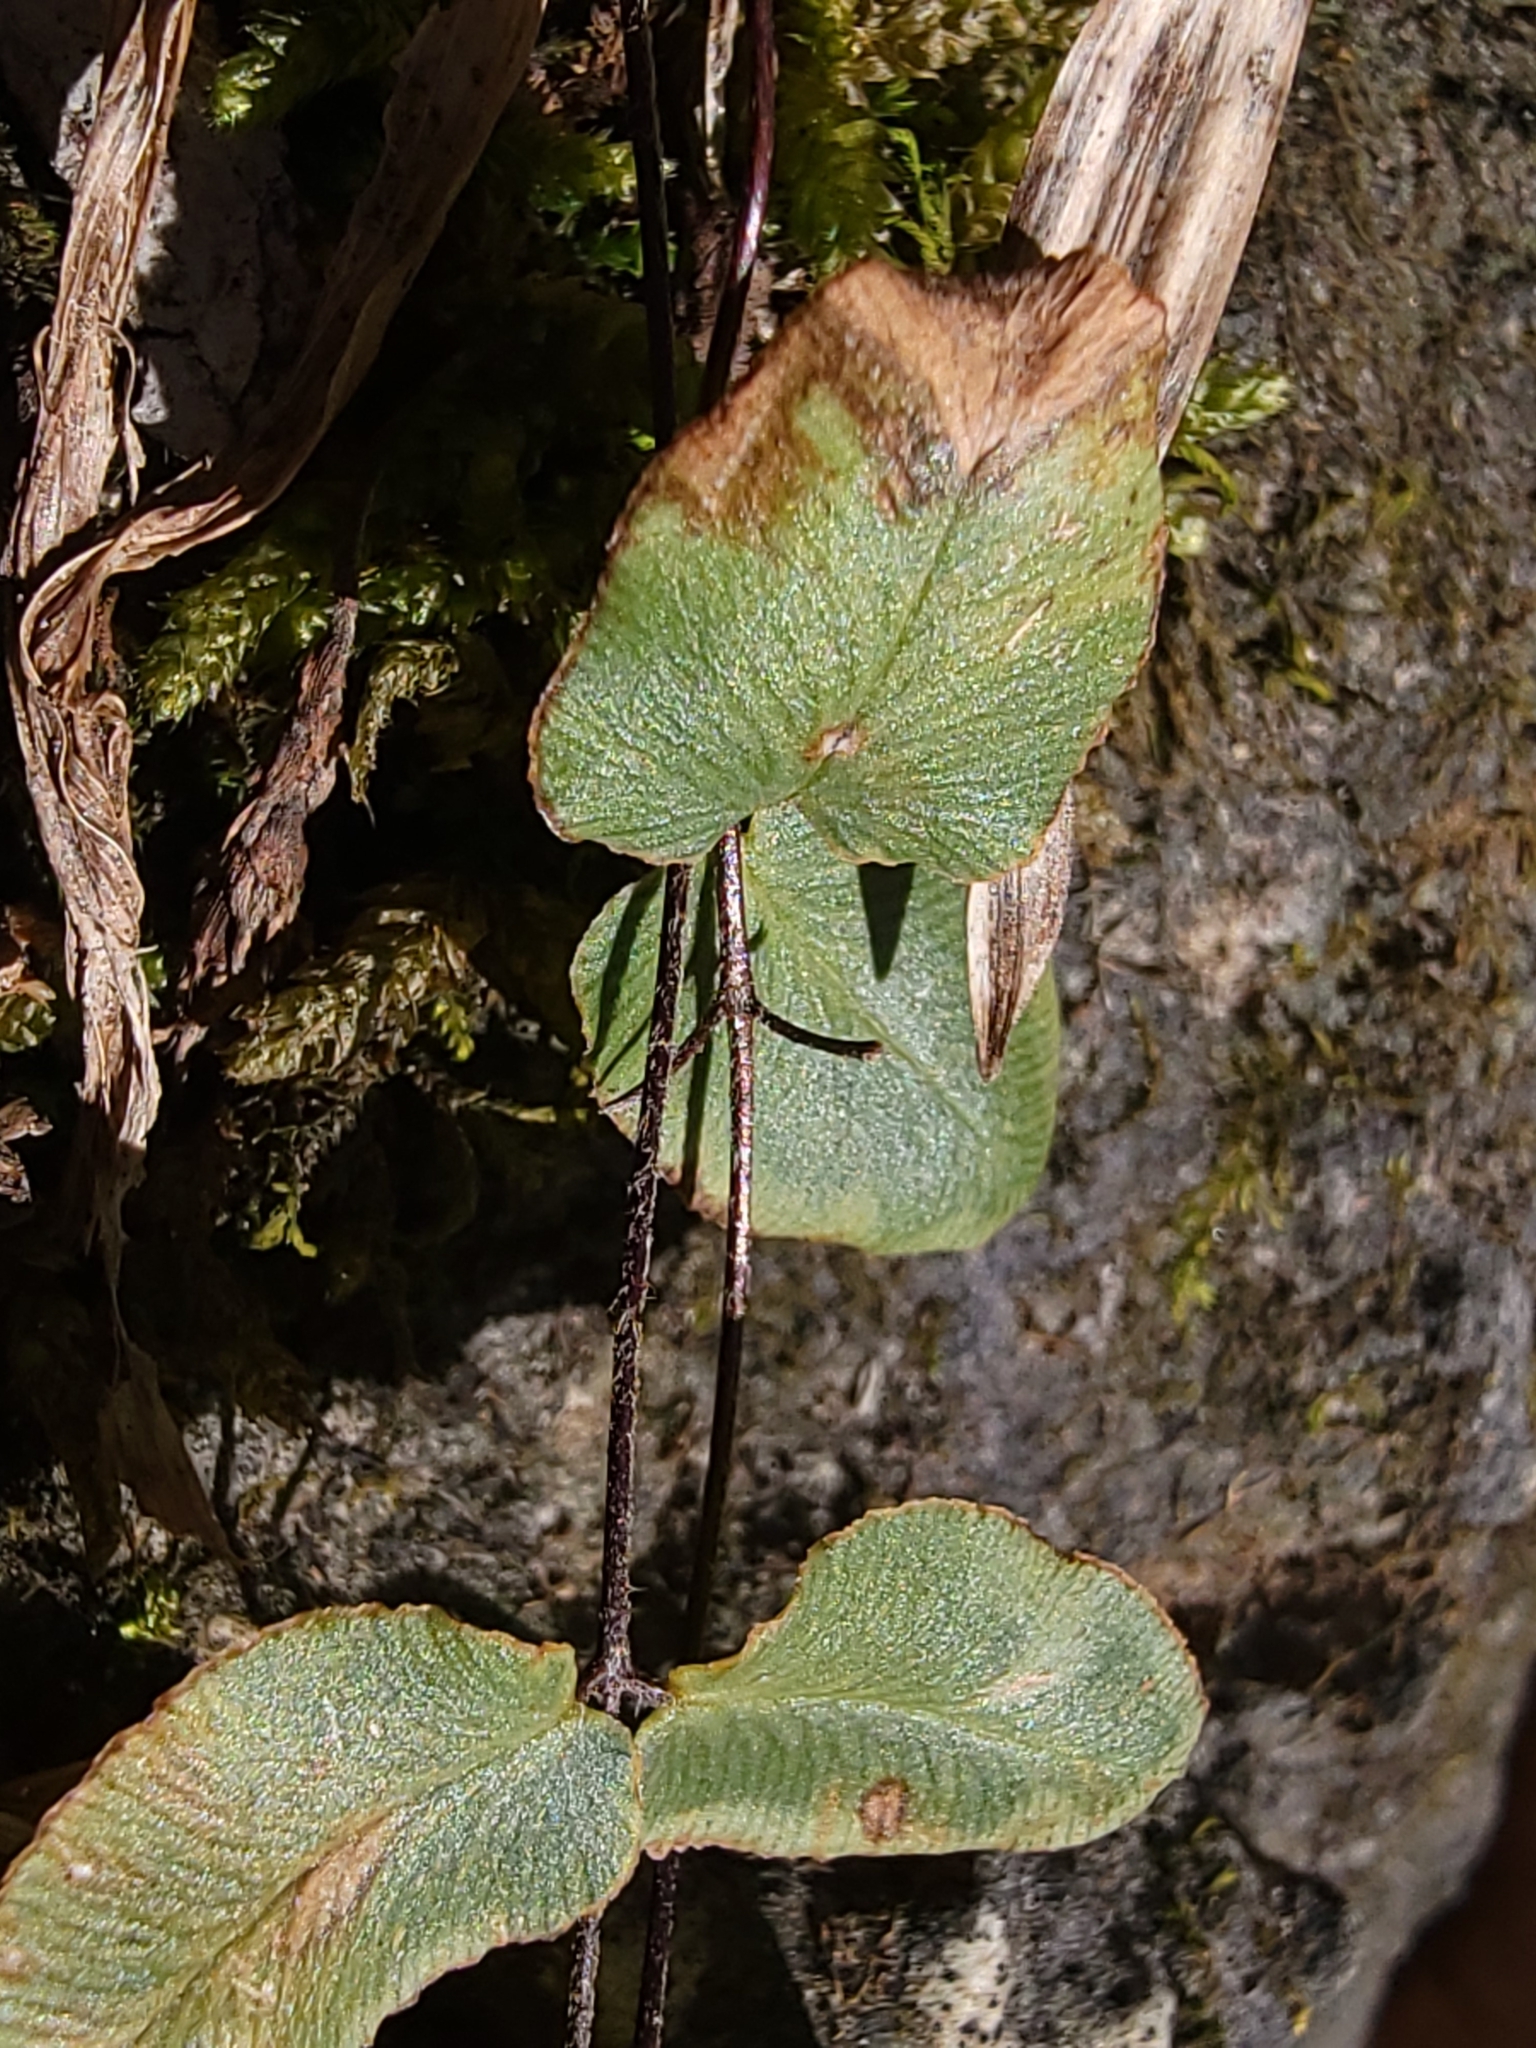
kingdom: Plantae
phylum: Tracheophyta
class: Polypodiopsida
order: Polypodiales
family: Pteridaceae
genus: Pellaea
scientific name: Pellaea atropurpurea
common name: Hairy cliffbrake
